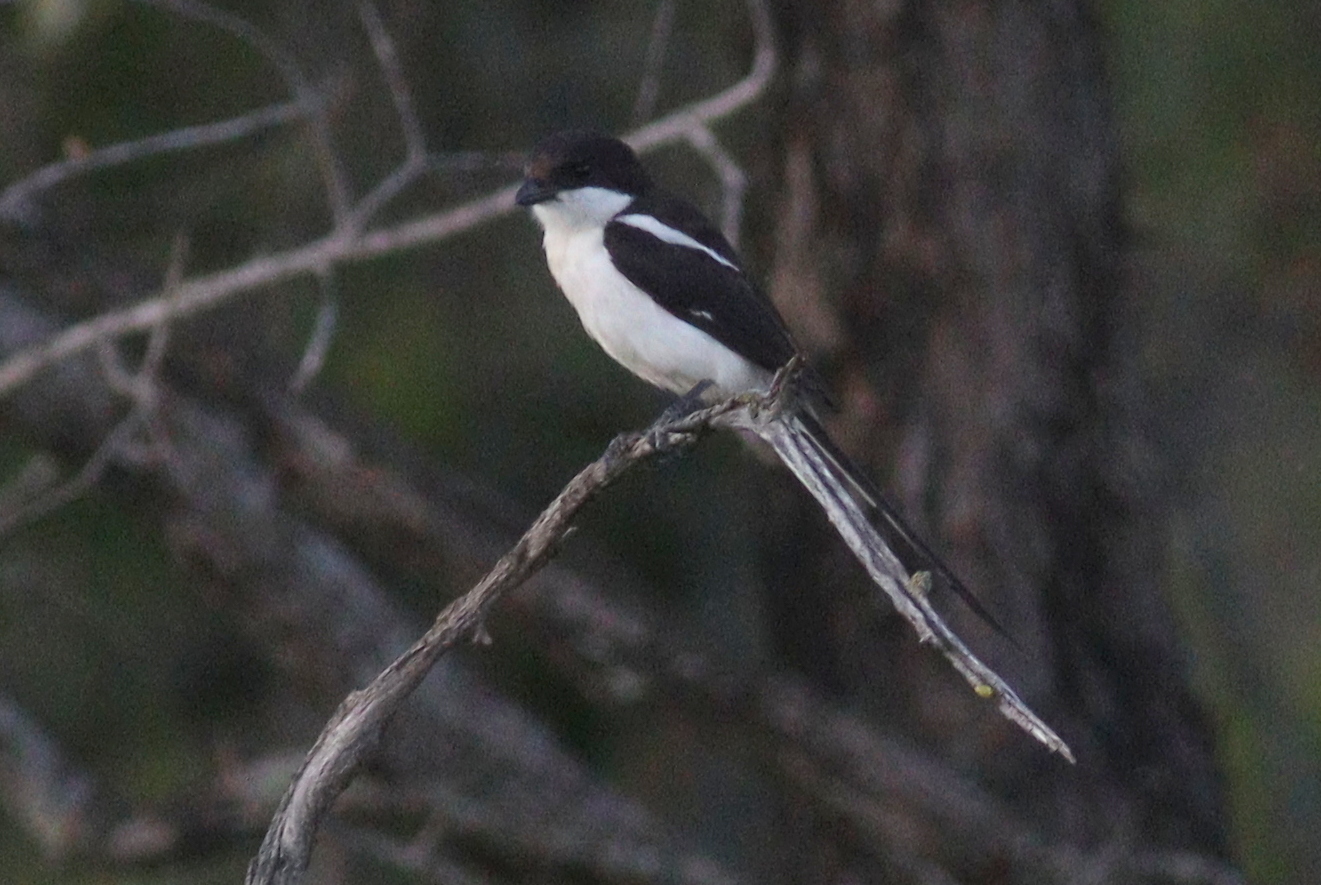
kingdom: Animalia
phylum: Chordata
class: Aves
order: Passeriformes
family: Laniidae
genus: Lanius
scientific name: Lanius humeralis
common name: Northern fiscal
